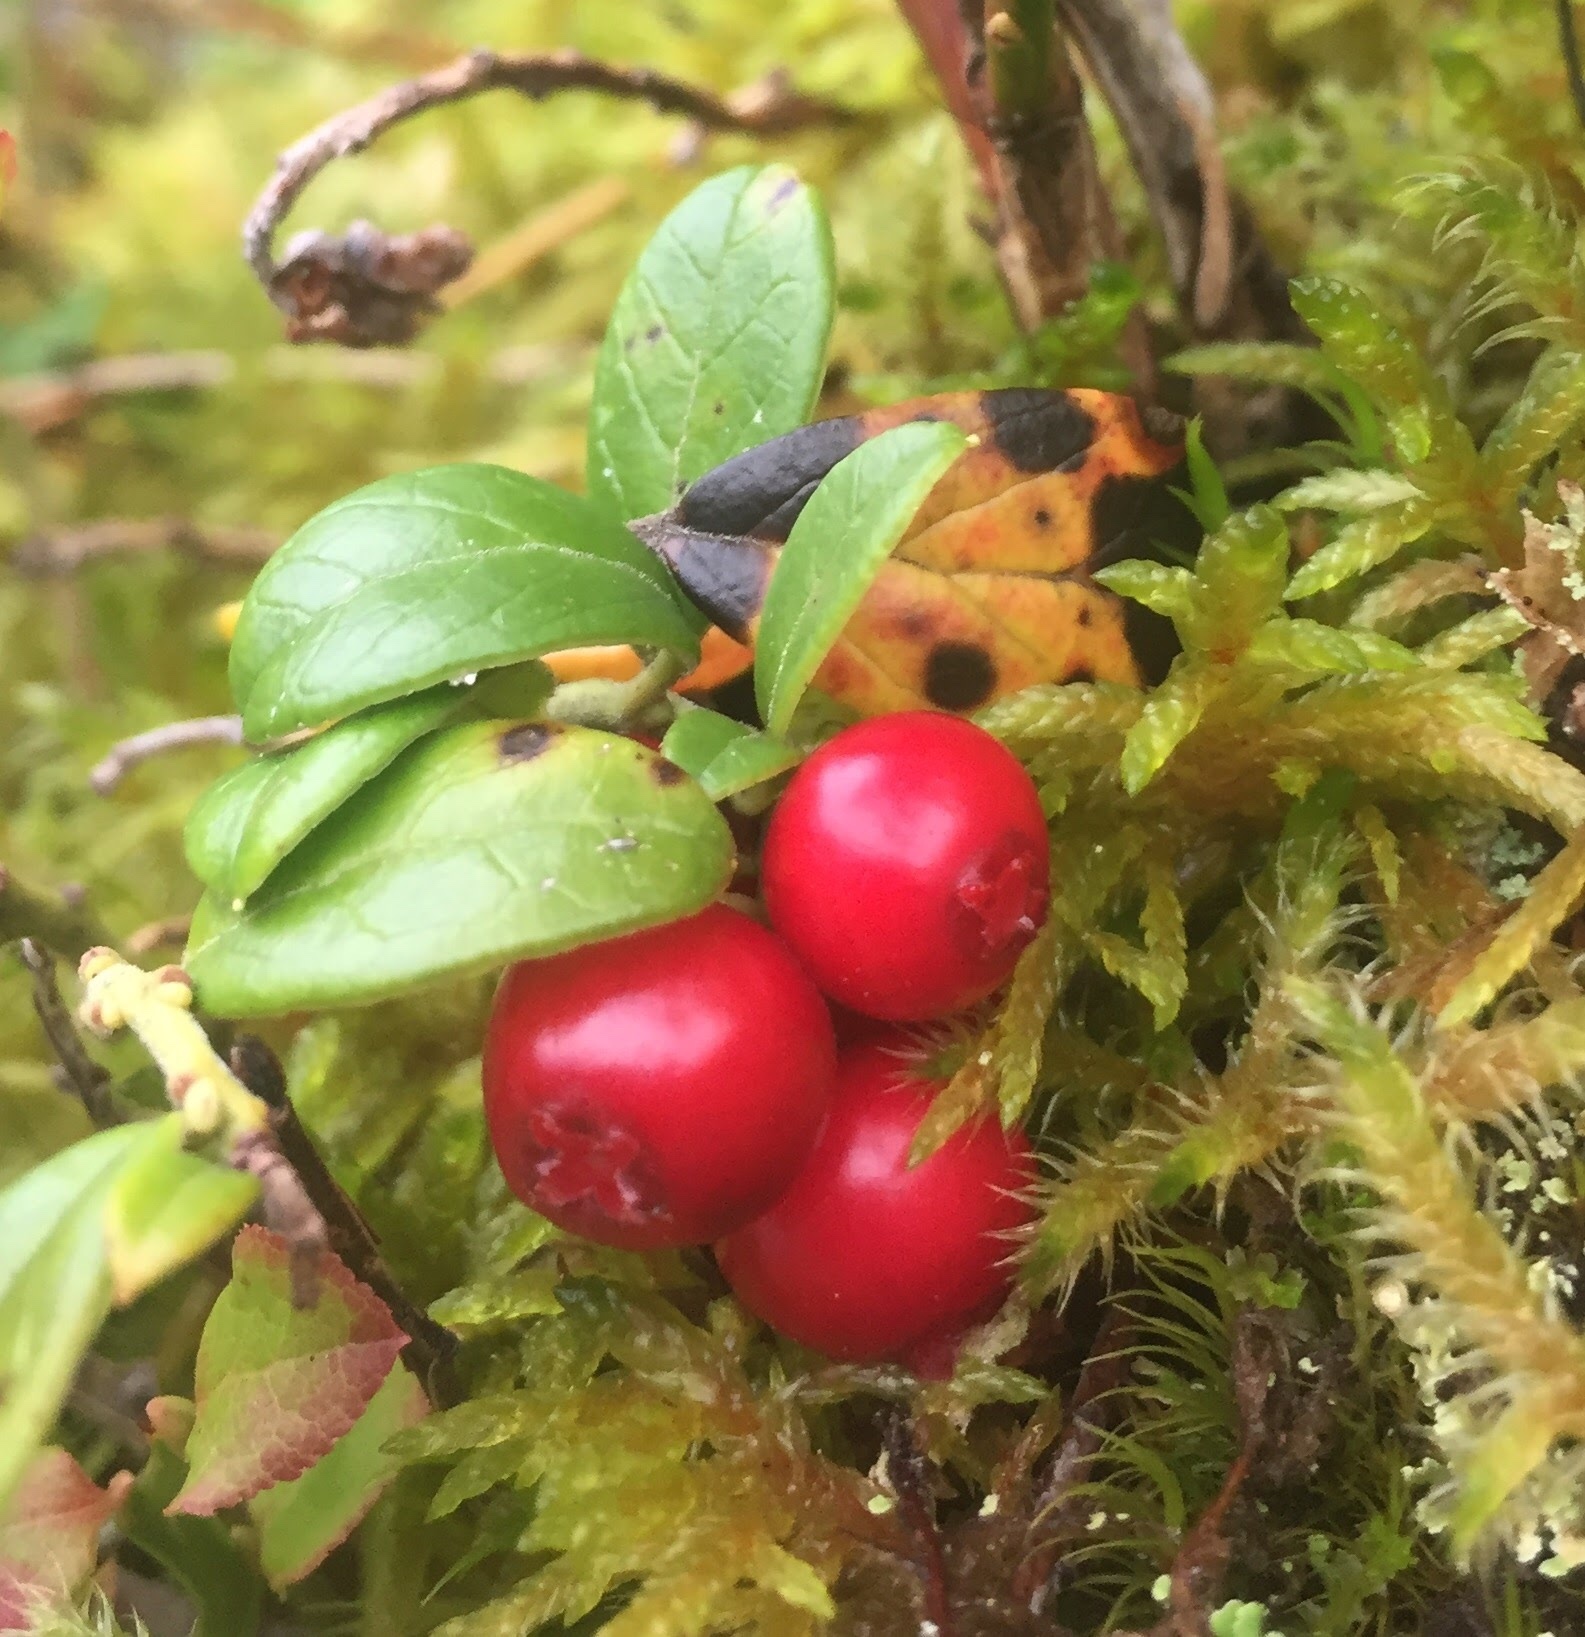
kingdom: Plantae
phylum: Tracheophyta
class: Magnoliopsida
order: Ericales
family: Ericaceae
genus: Vaccinium
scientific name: Vaccinium vitis-idaea
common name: Cowberry
